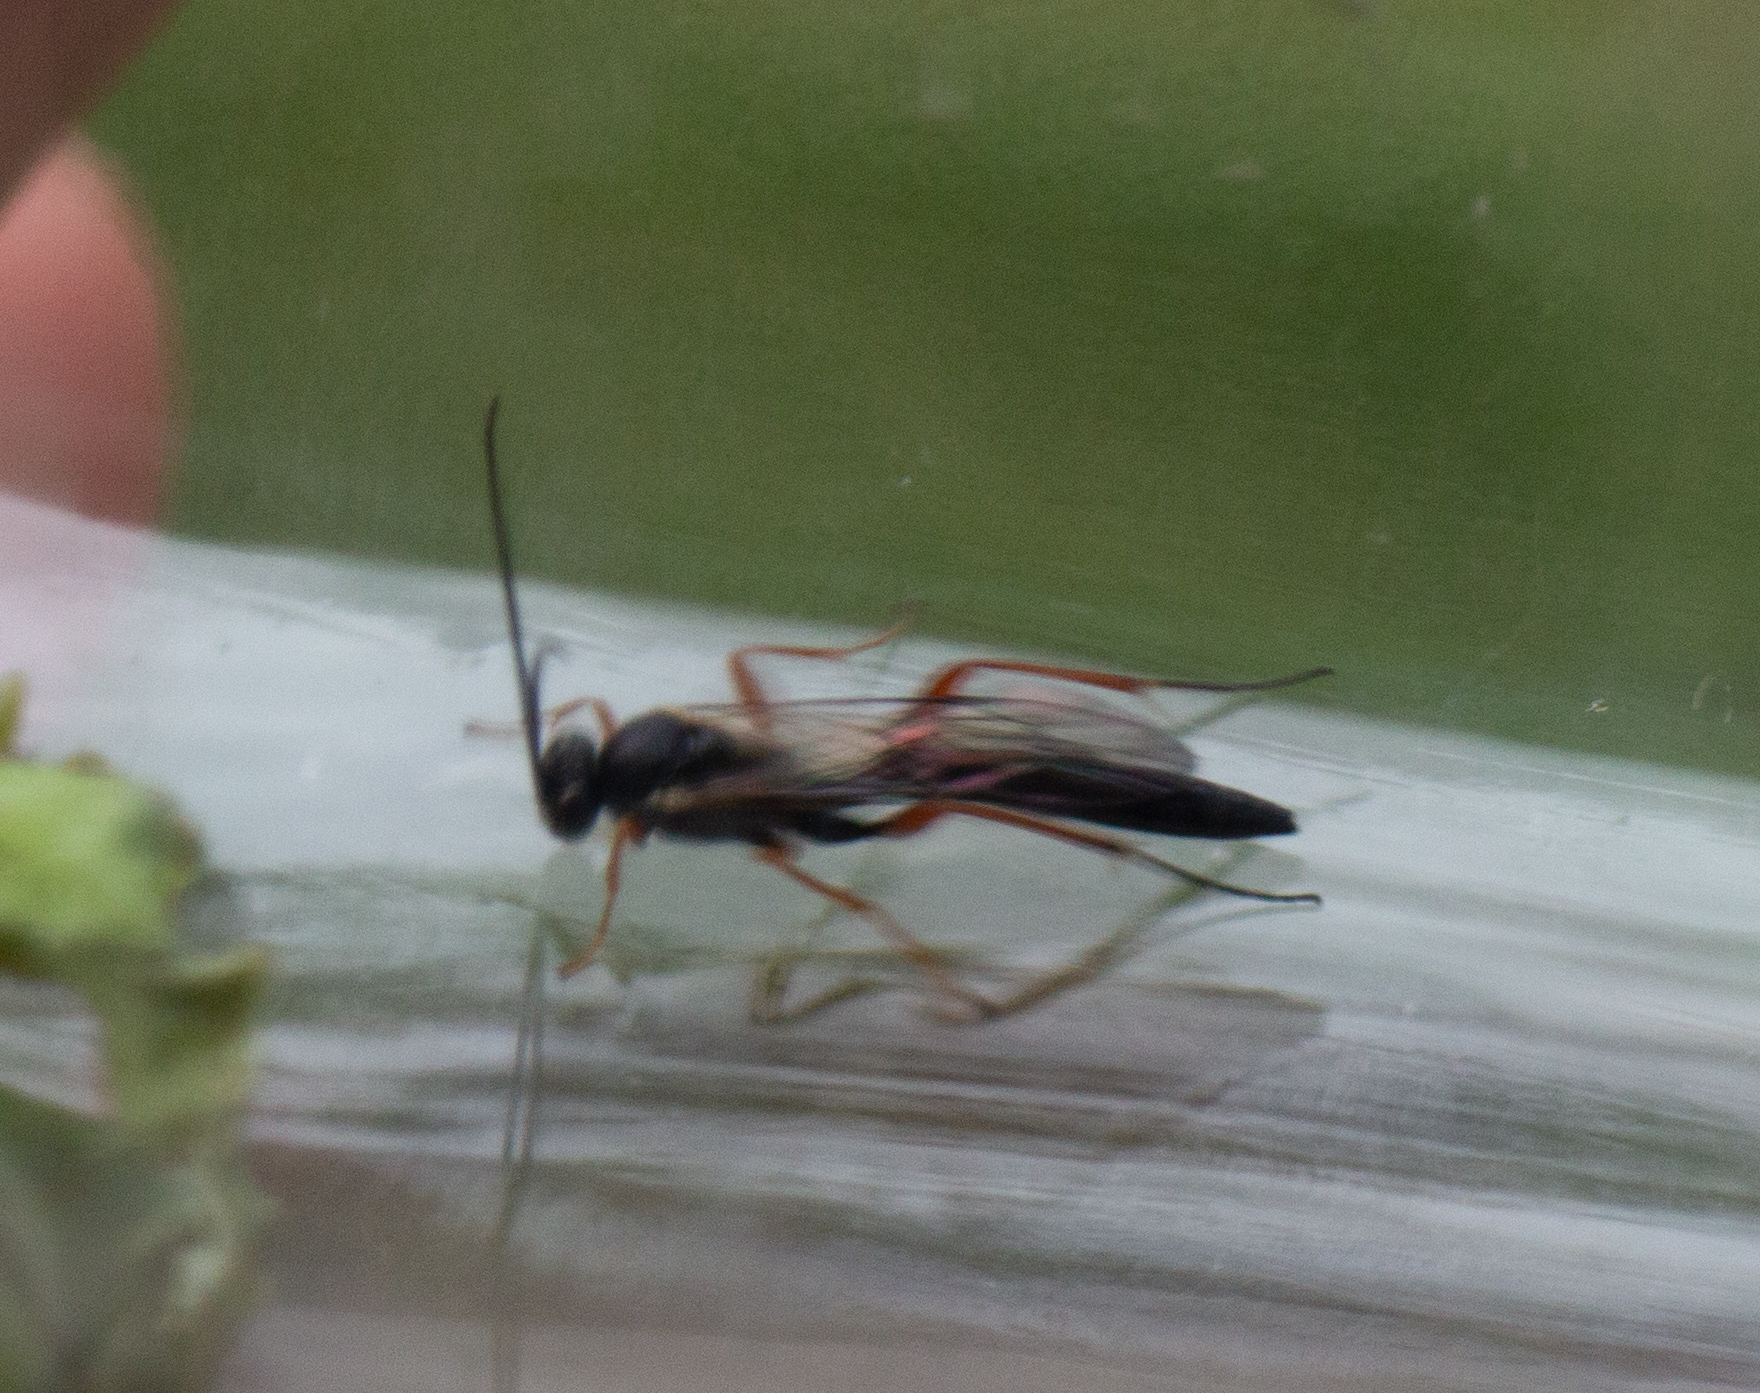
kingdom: Animalia
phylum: Arthropoda
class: Insecta
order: Hymenoptera
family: Ichneumonidae
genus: Hyposoter
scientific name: Hyposoter ebeninus
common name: Ichneumonid wasp
